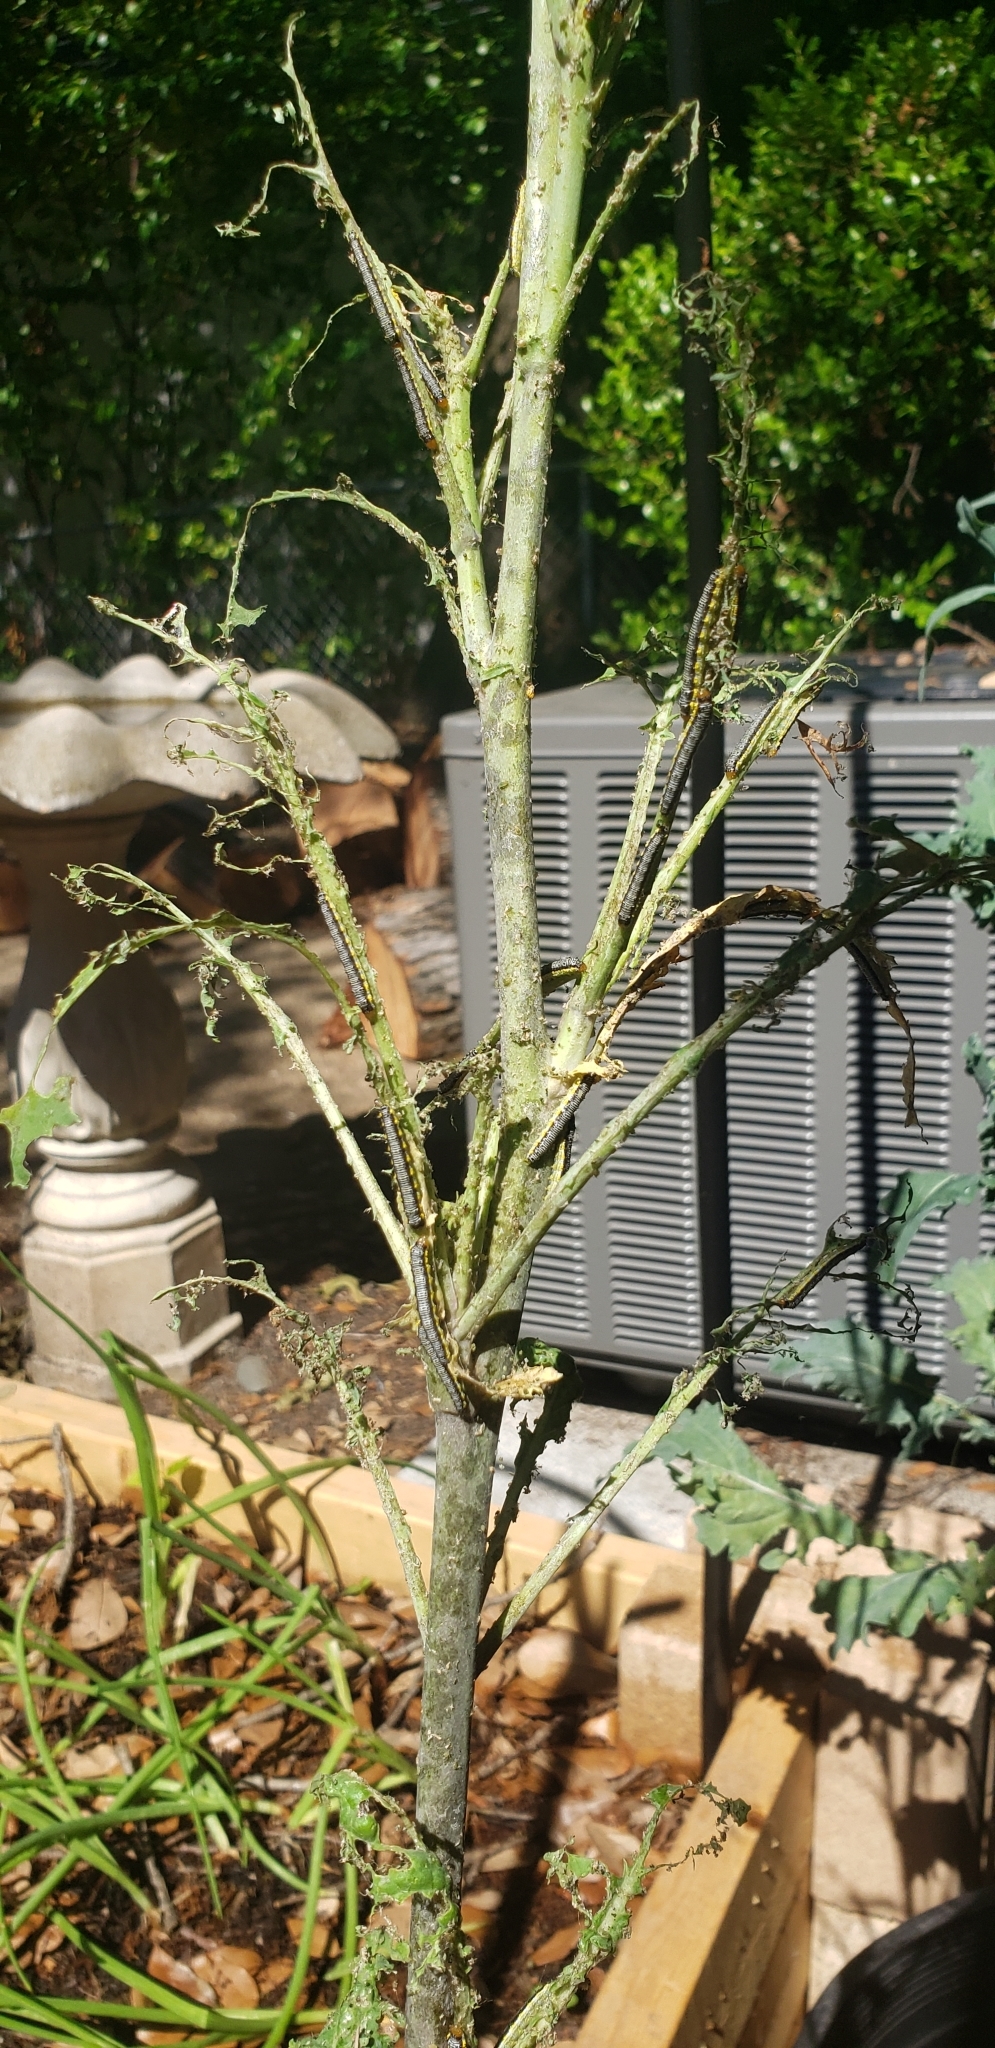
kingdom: Animalia
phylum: Arthropoda
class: Insecta
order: Lepidoptera
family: Crambidae
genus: Evergestis
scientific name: Evergestis rimosalis
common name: Cross-striped cabbageworm moth
